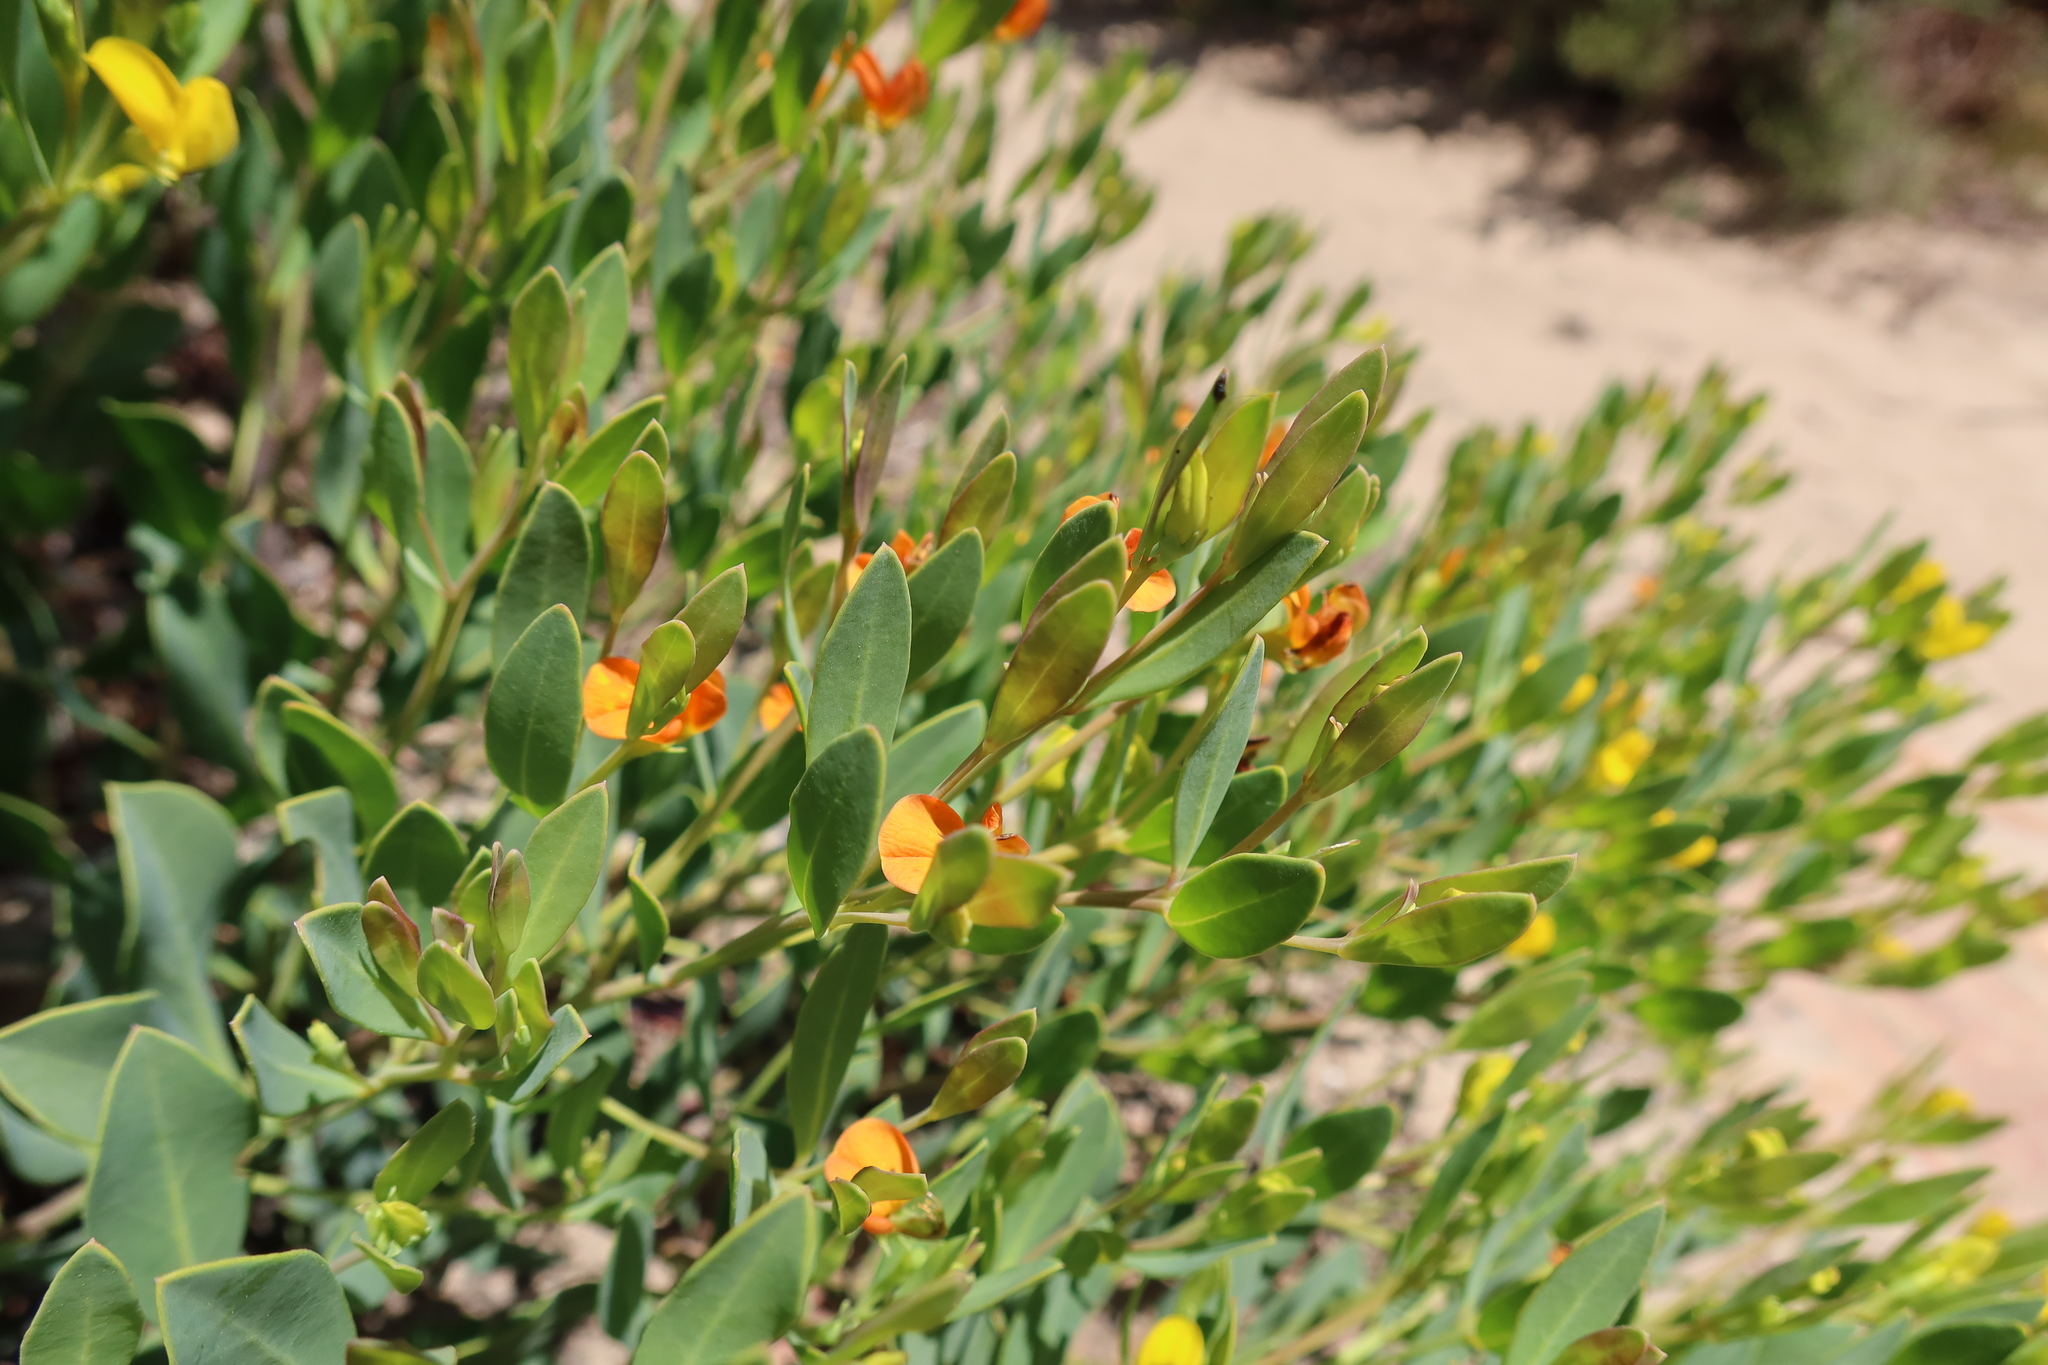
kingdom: Plantae
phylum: Tracheophyta
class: Magnoliopsida
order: Fabales
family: Fabaceae
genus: Rafnia
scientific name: Rafnia angulata
